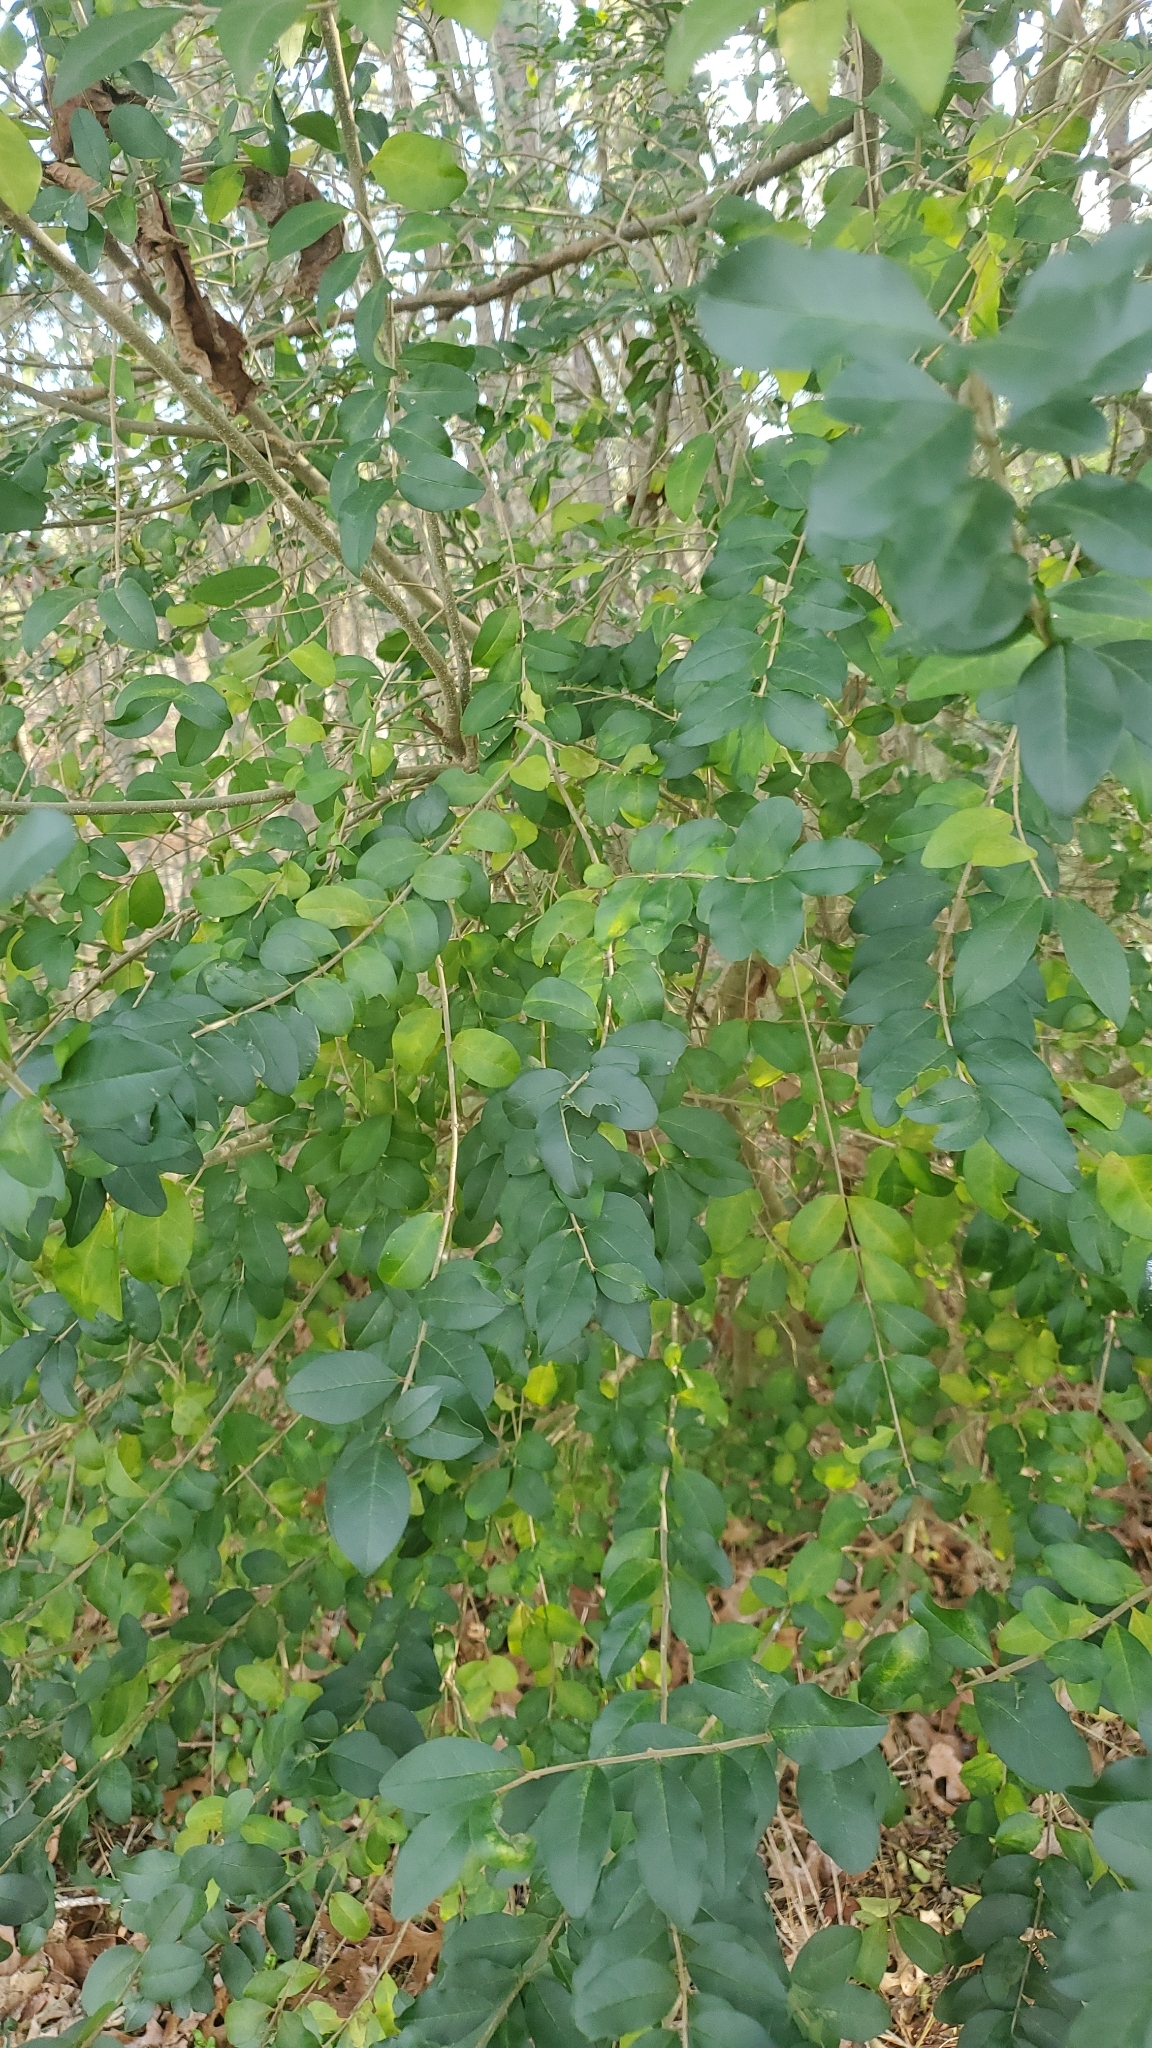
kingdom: Plantae
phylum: Tracheophyta
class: Magnoliopsida
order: Lamiales
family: Oleaceae
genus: Ligustrum
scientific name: Ligustrum sinense
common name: Chinese privet
